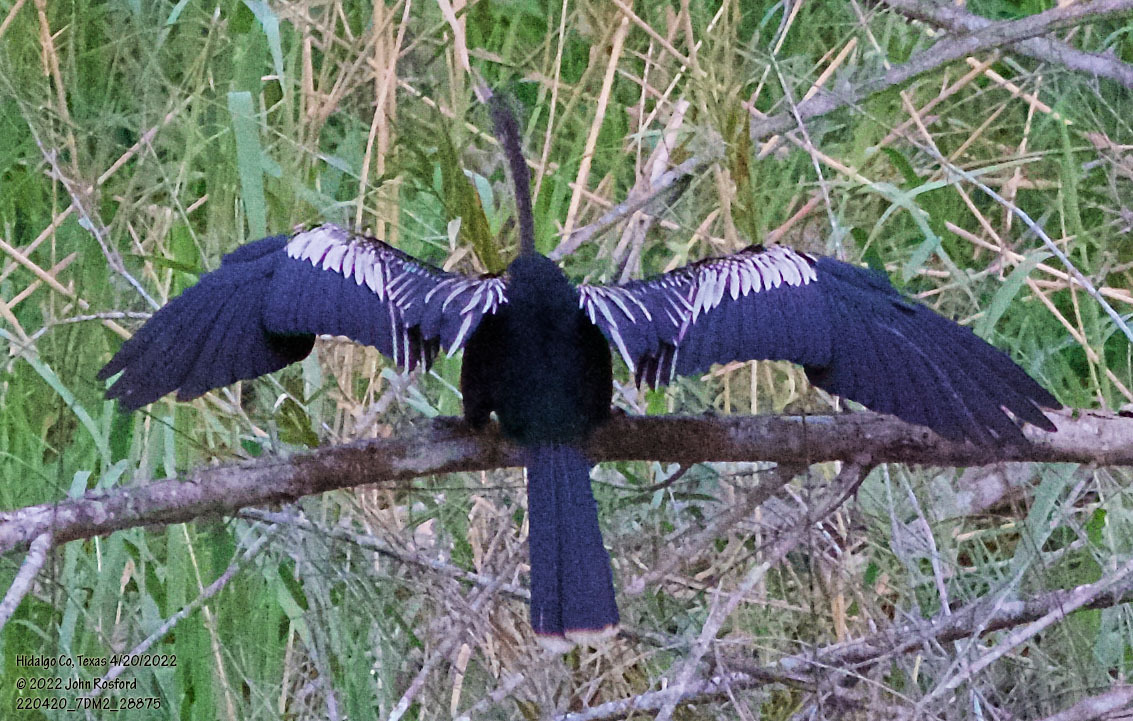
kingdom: Animalia
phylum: Chordata
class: Aves
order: Suliformes
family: Anhingidae
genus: Anhinga
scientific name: Anhinga anhinga
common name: Anhinga
